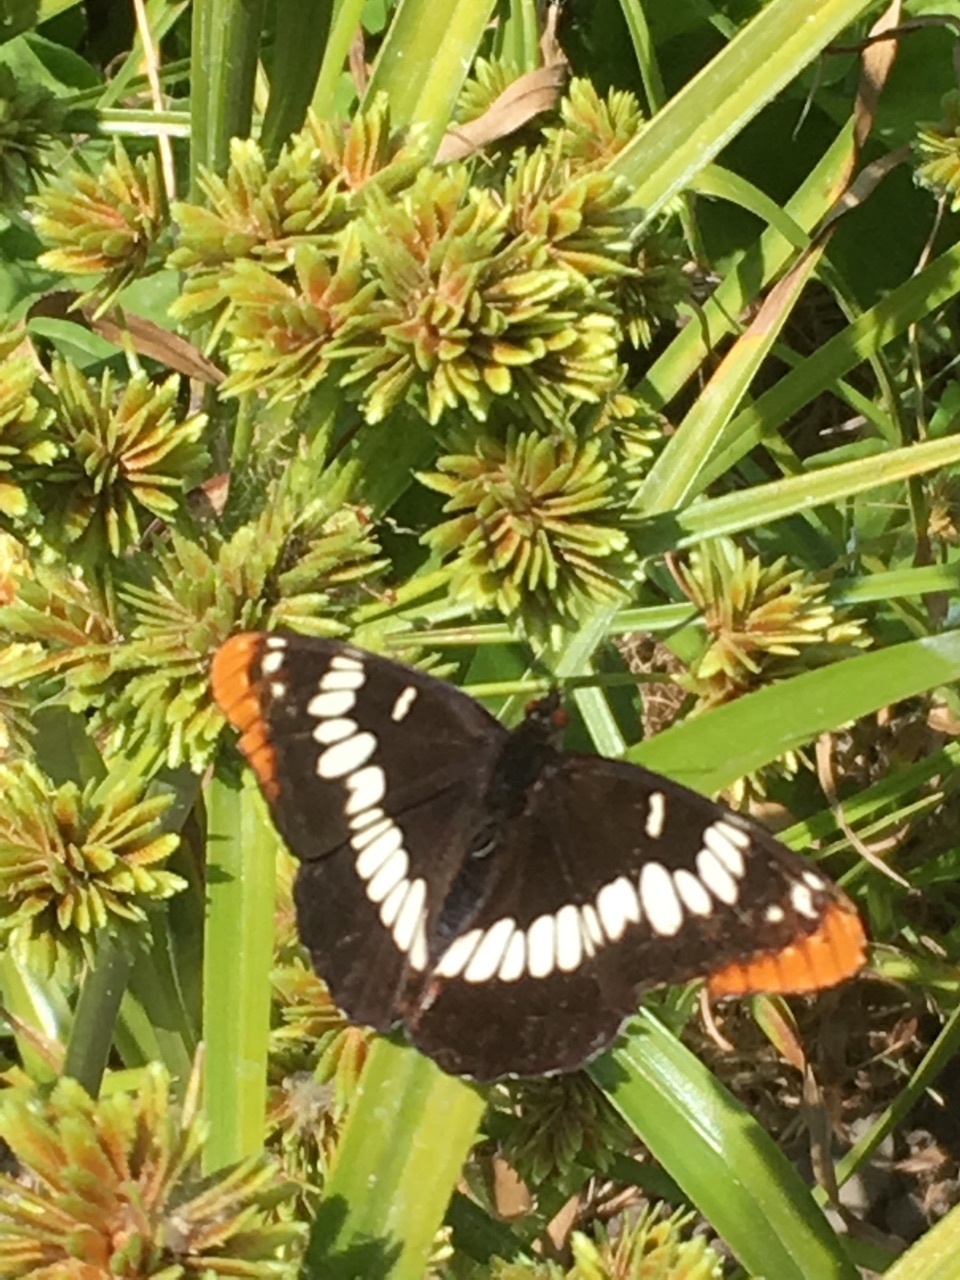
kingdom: Animalia
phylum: Arthropoda
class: Insecta
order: Lepidoptera
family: Nymphalidae
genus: Limenitis
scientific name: Limenitis lorquini
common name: Lorquin's admiral
